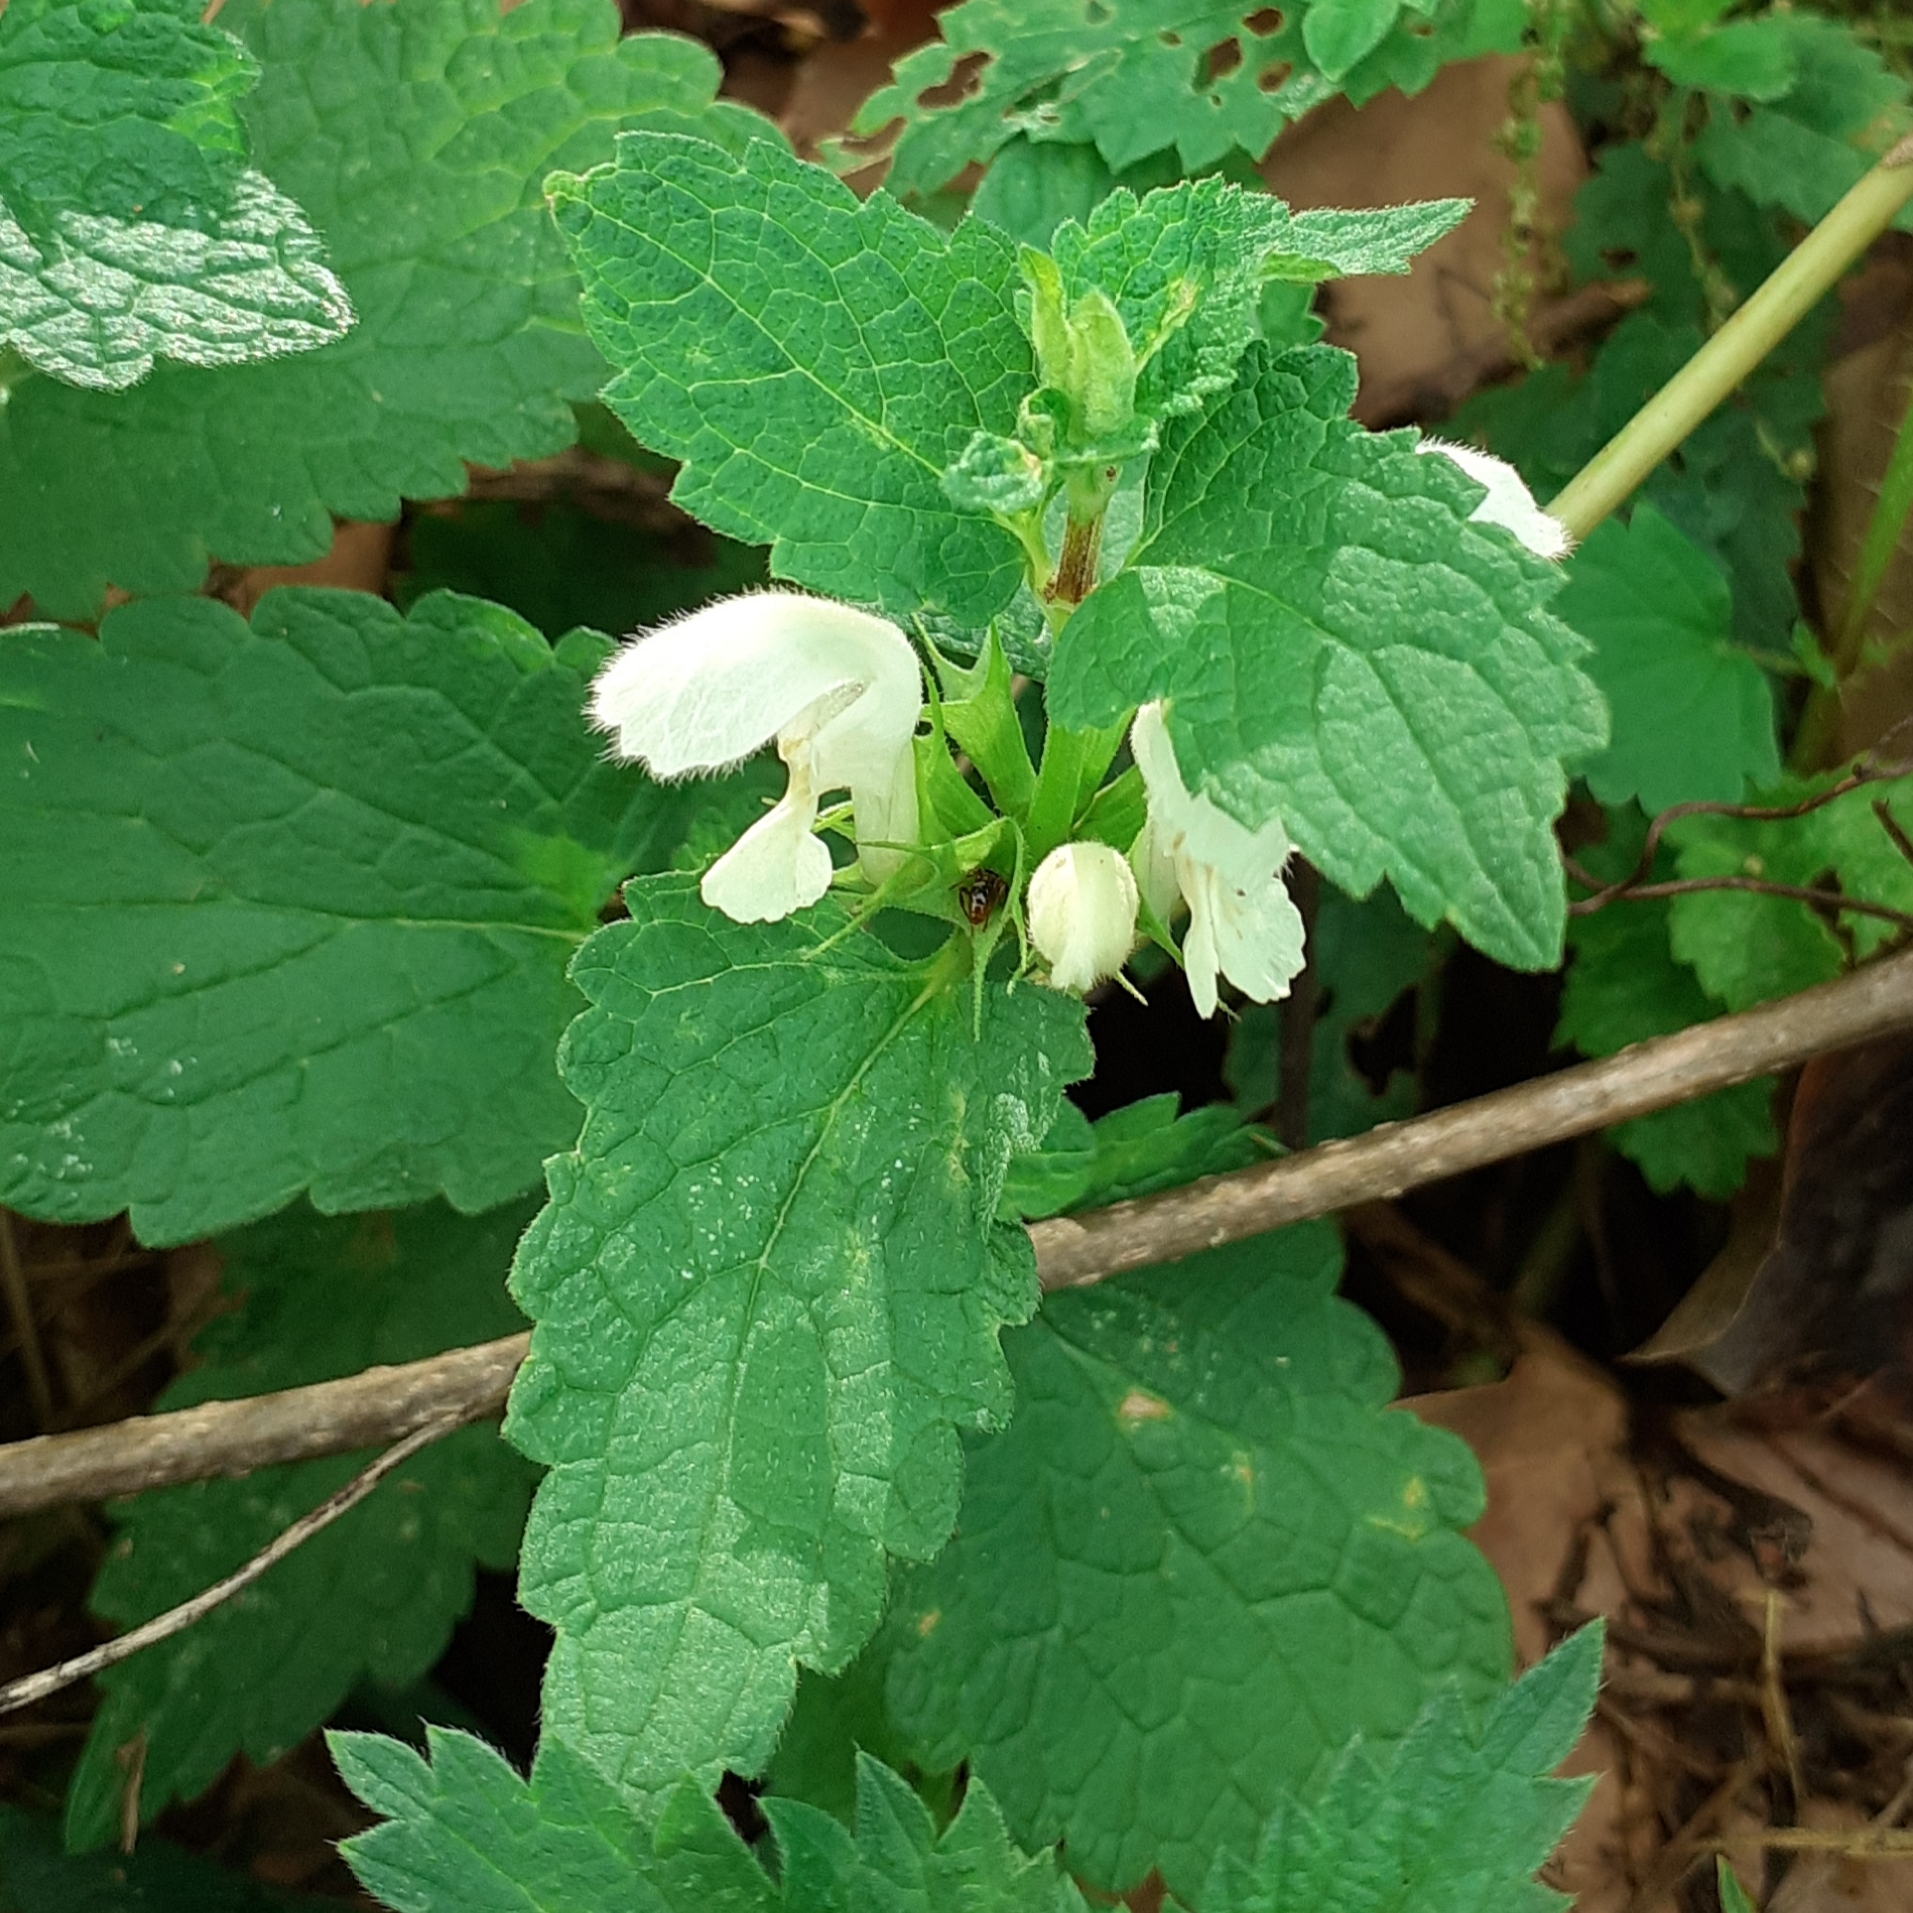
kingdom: Plantae
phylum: Tracheophyta
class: Magnoliopsida
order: Lamiales
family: Lamiaceae
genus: Lamium
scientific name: Lamium album
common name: White dead-nettle
